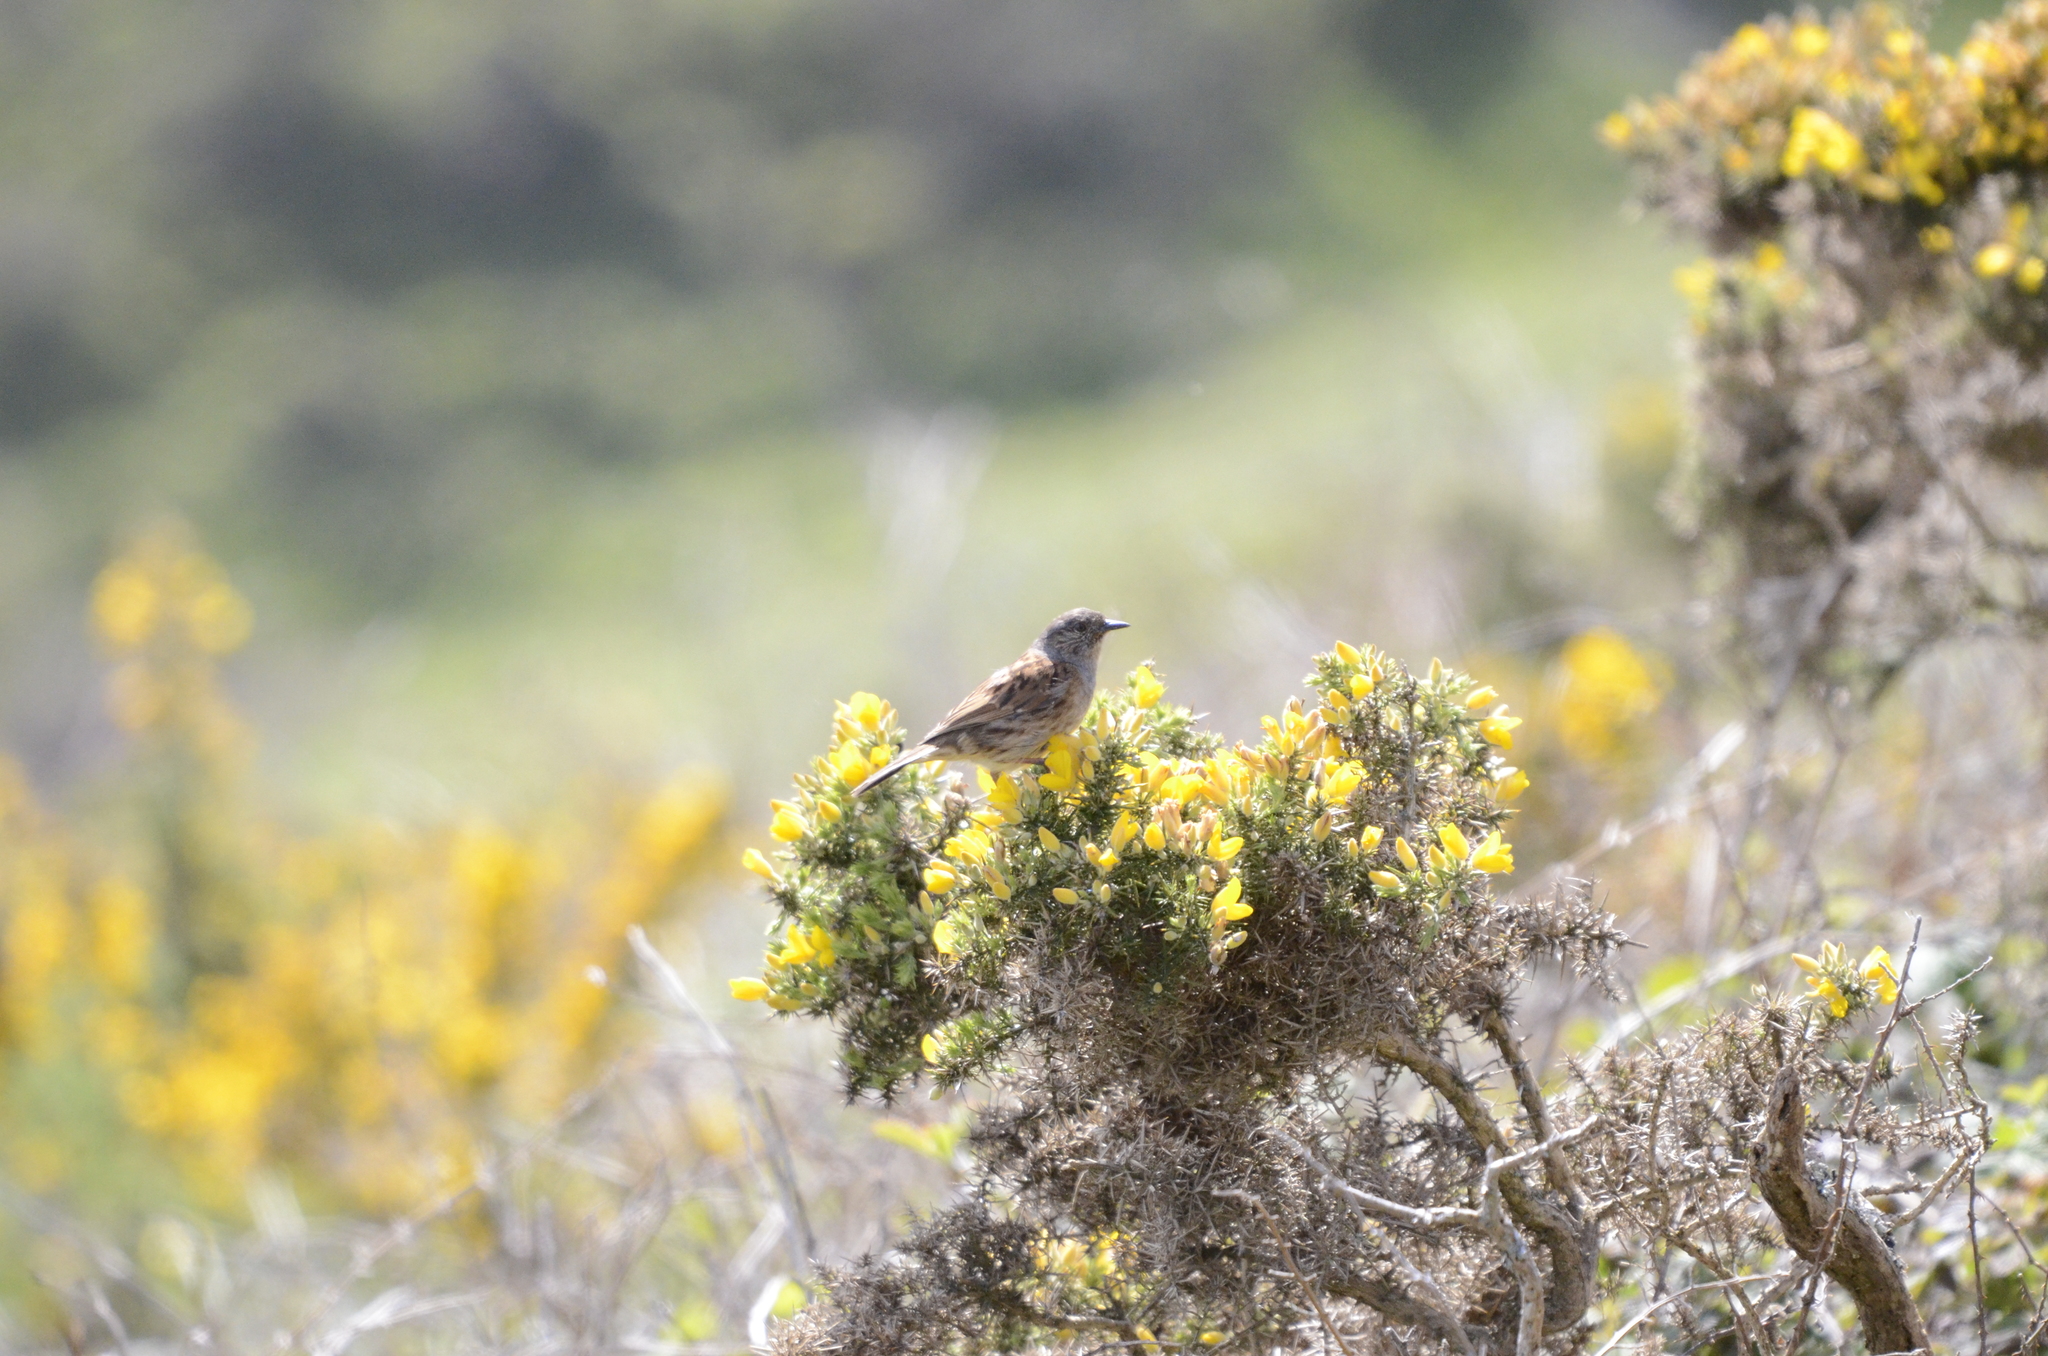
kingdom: Animalia
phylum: Chordata
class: Aves
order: Passeriformes
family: Prunellidae
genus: Prunella
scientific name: Prunella modularis
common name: Dunnock
